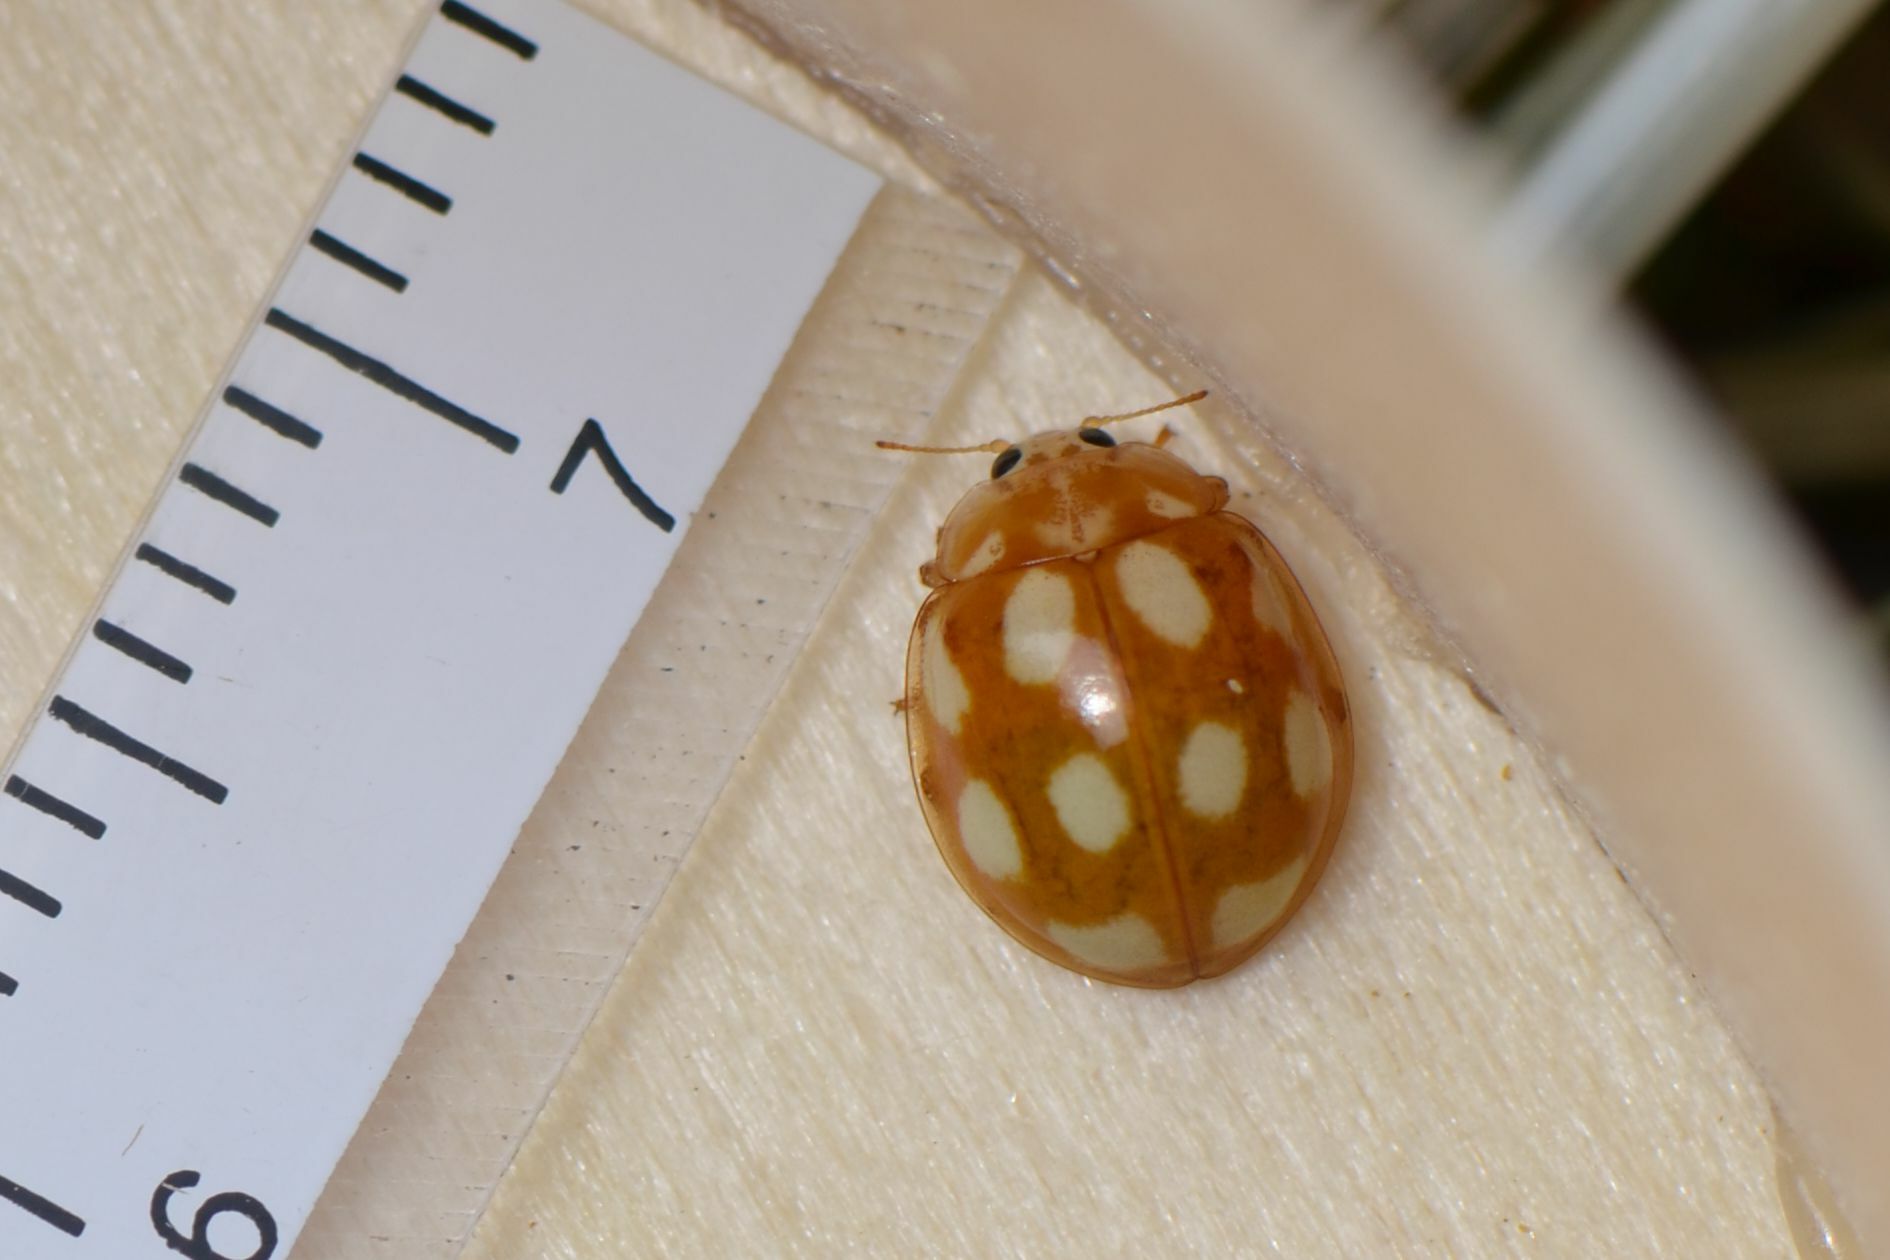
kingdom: Animalia
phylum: Arthropoda
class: Insecta
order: Coleoptera
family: Coccinellidae
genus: Calvia
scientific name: Calvia decemguttata
